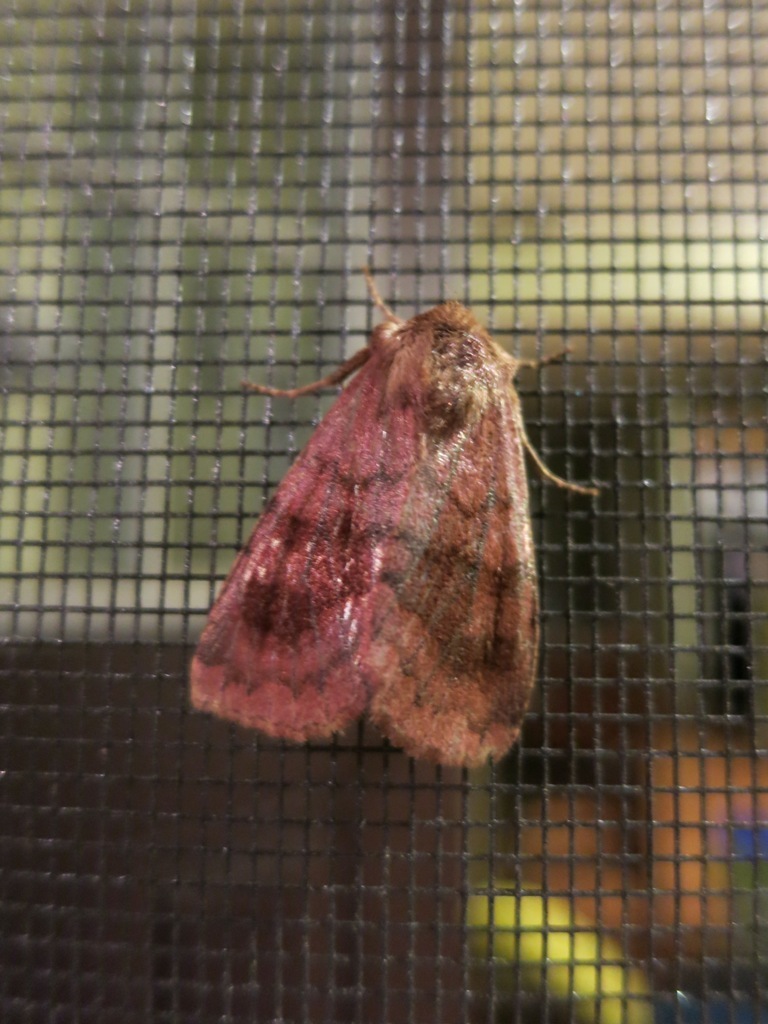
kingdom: Animalia
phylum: Arthropoda
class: Insecta
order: Lepidoptera
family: Noctuidae
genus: Nephelodes
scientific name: Nephelodes minians
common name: Bronzed cutworm
